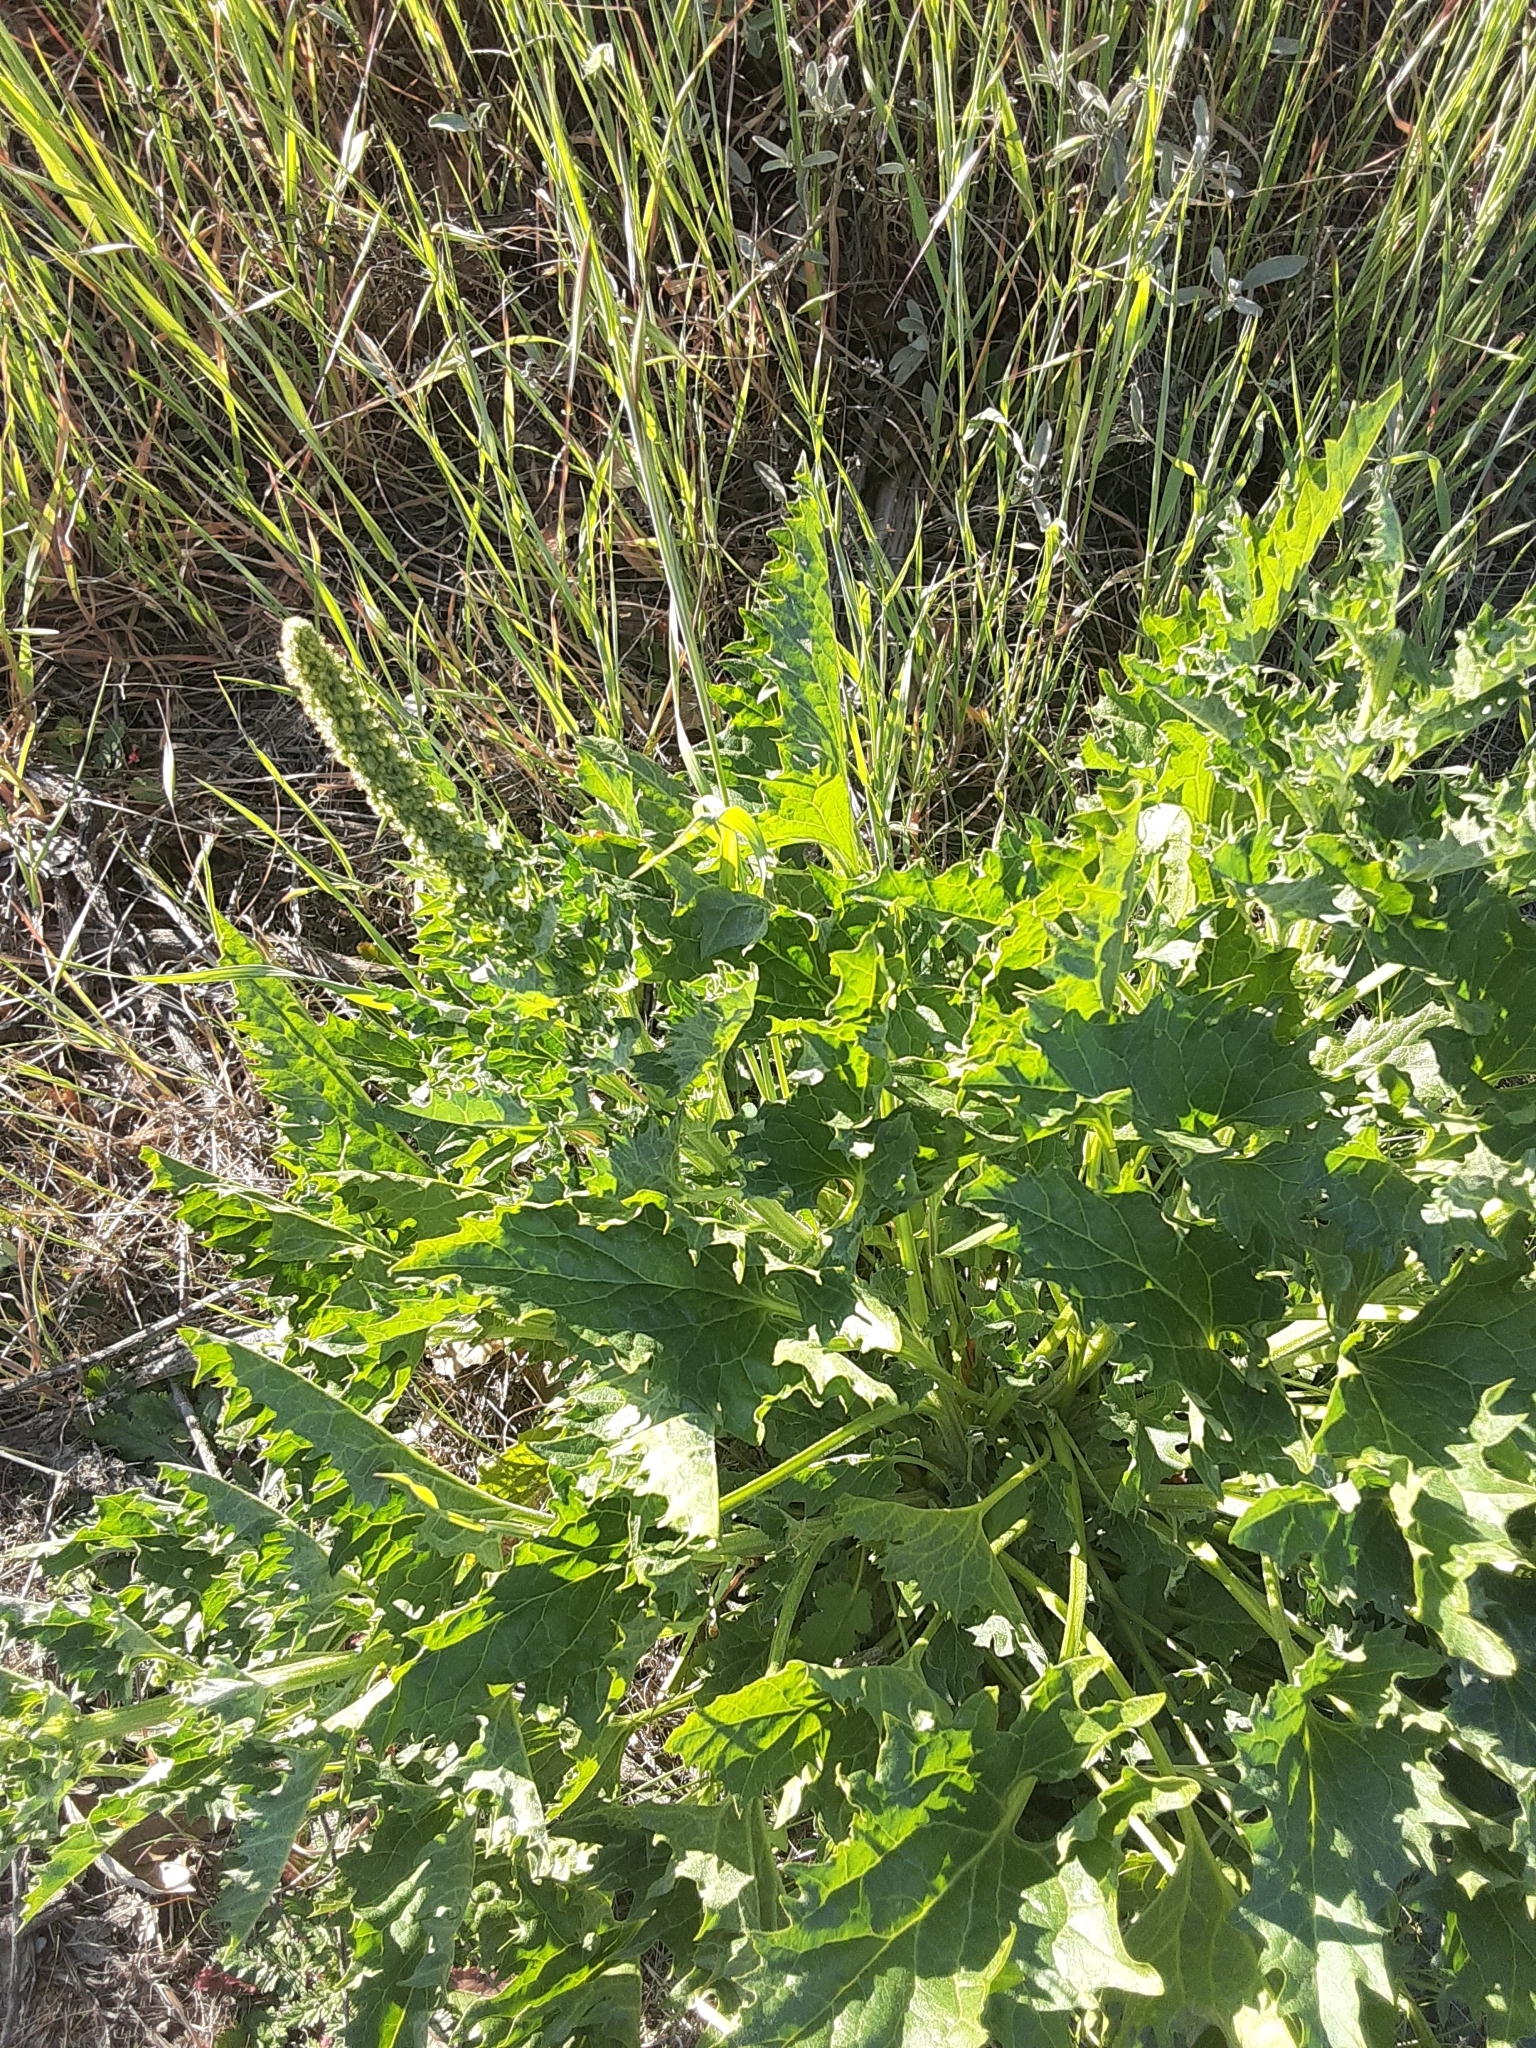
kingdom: Plantae
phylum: Tracheophyta
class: Magnoliopsida
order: Caryophyllales
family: Amaranthaceae
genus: Blitum
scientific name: Blitum californicum
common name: California goosefoot
